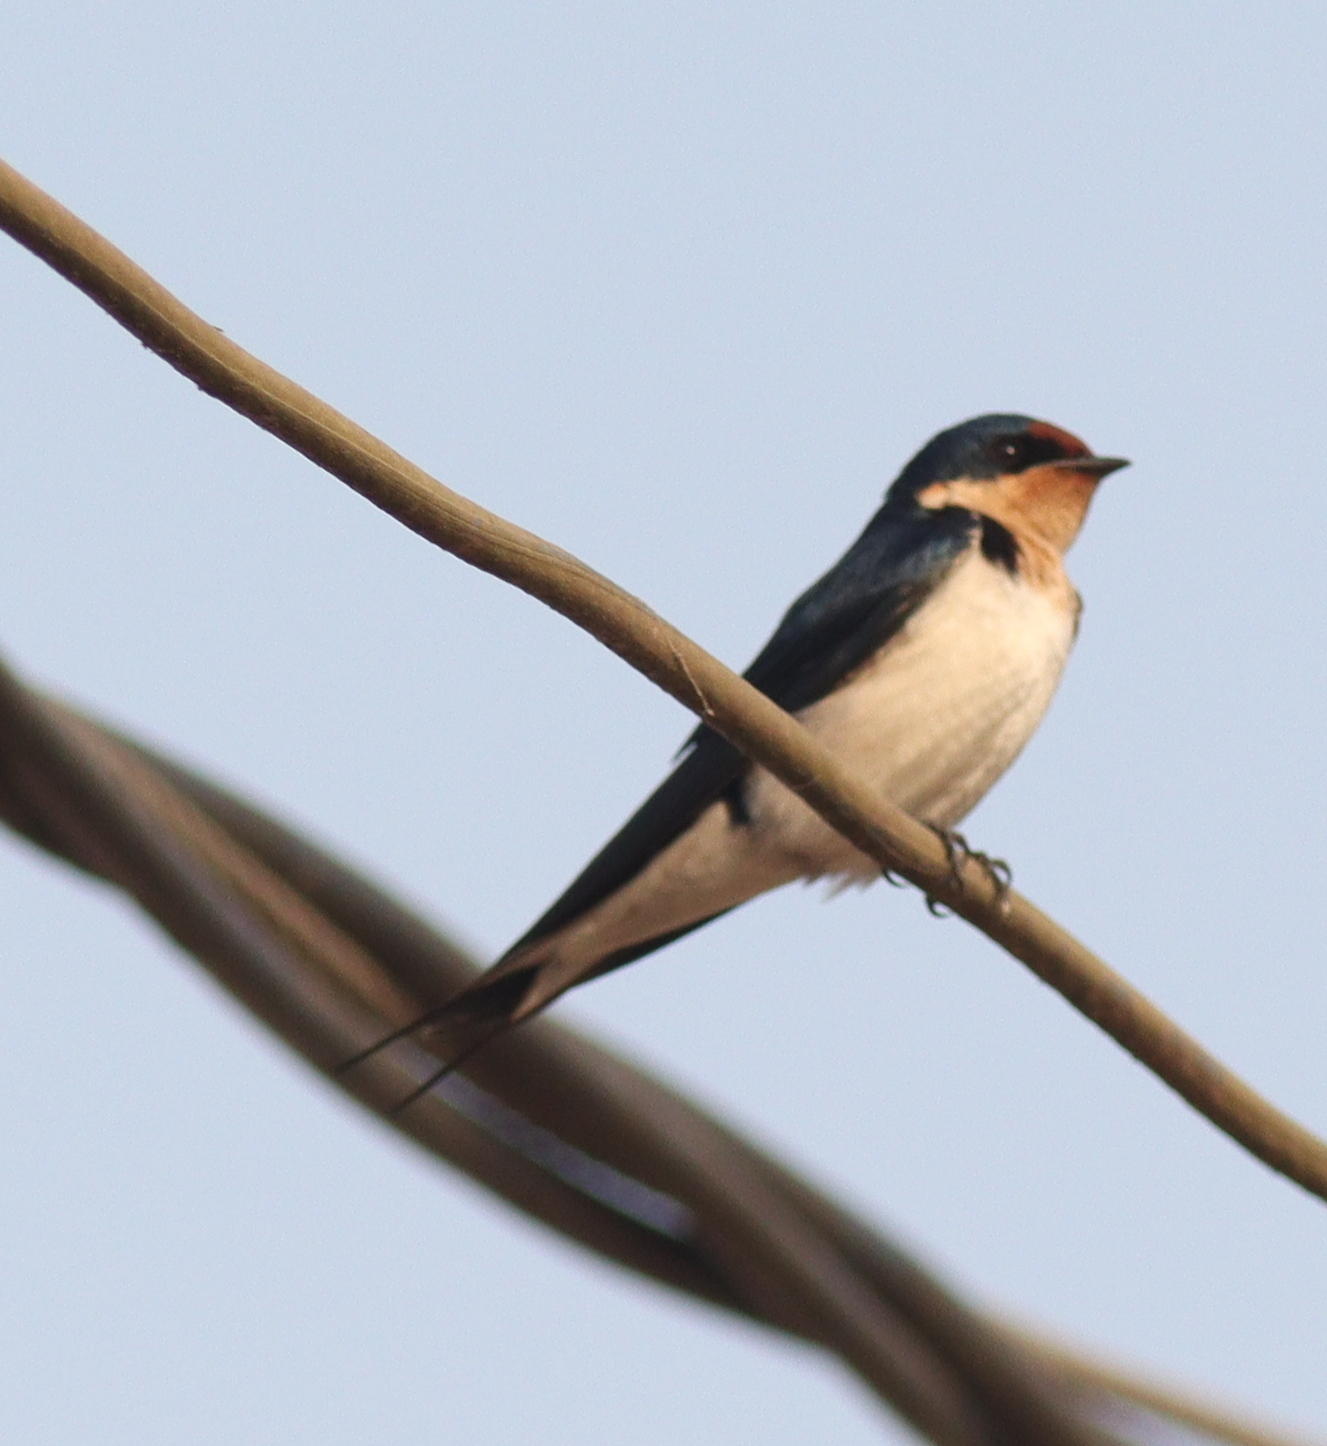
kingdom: Animalia
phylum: Chordata
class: Aves
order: Passeriformes
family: Hirundinidae
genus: Hirundo
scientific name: Hirundo aethiopica
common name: Ethiopian swallow
